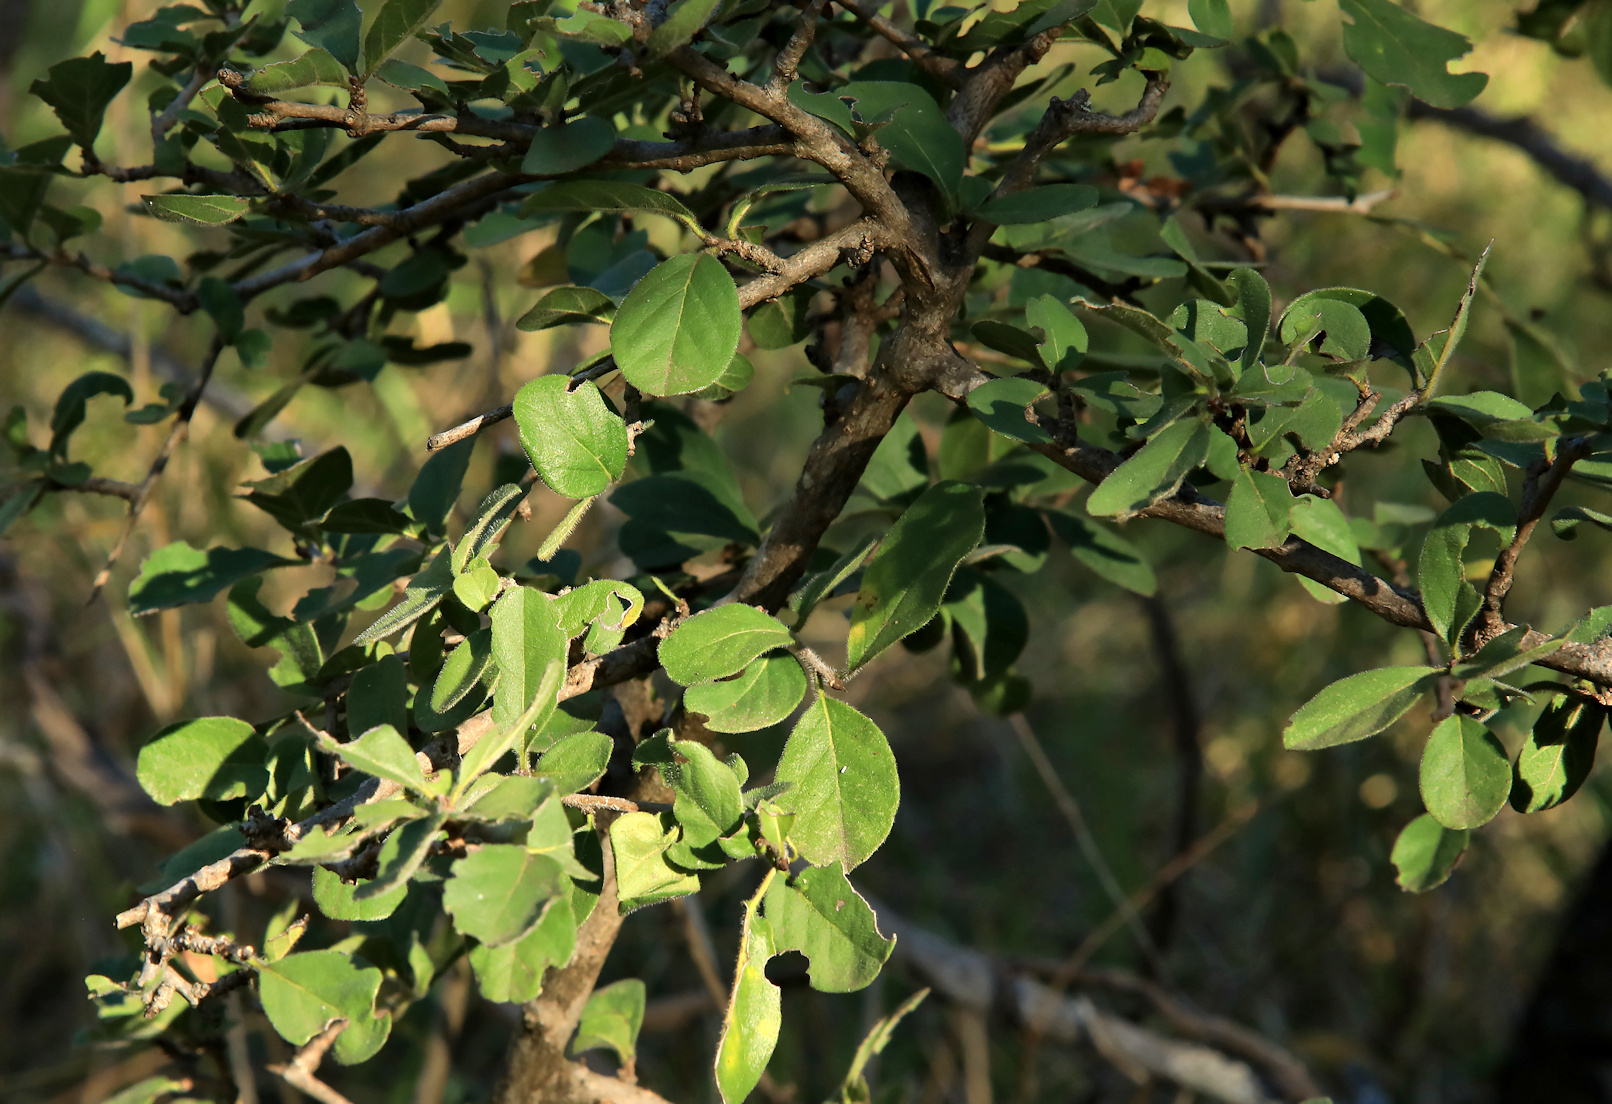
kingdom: Plantae
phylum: Tracheophyta
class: Magnoliopsida
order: Boraginales
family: Ehretiaceae
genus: Ehretia
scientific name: Ehretia rigida
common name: Cape lilac
